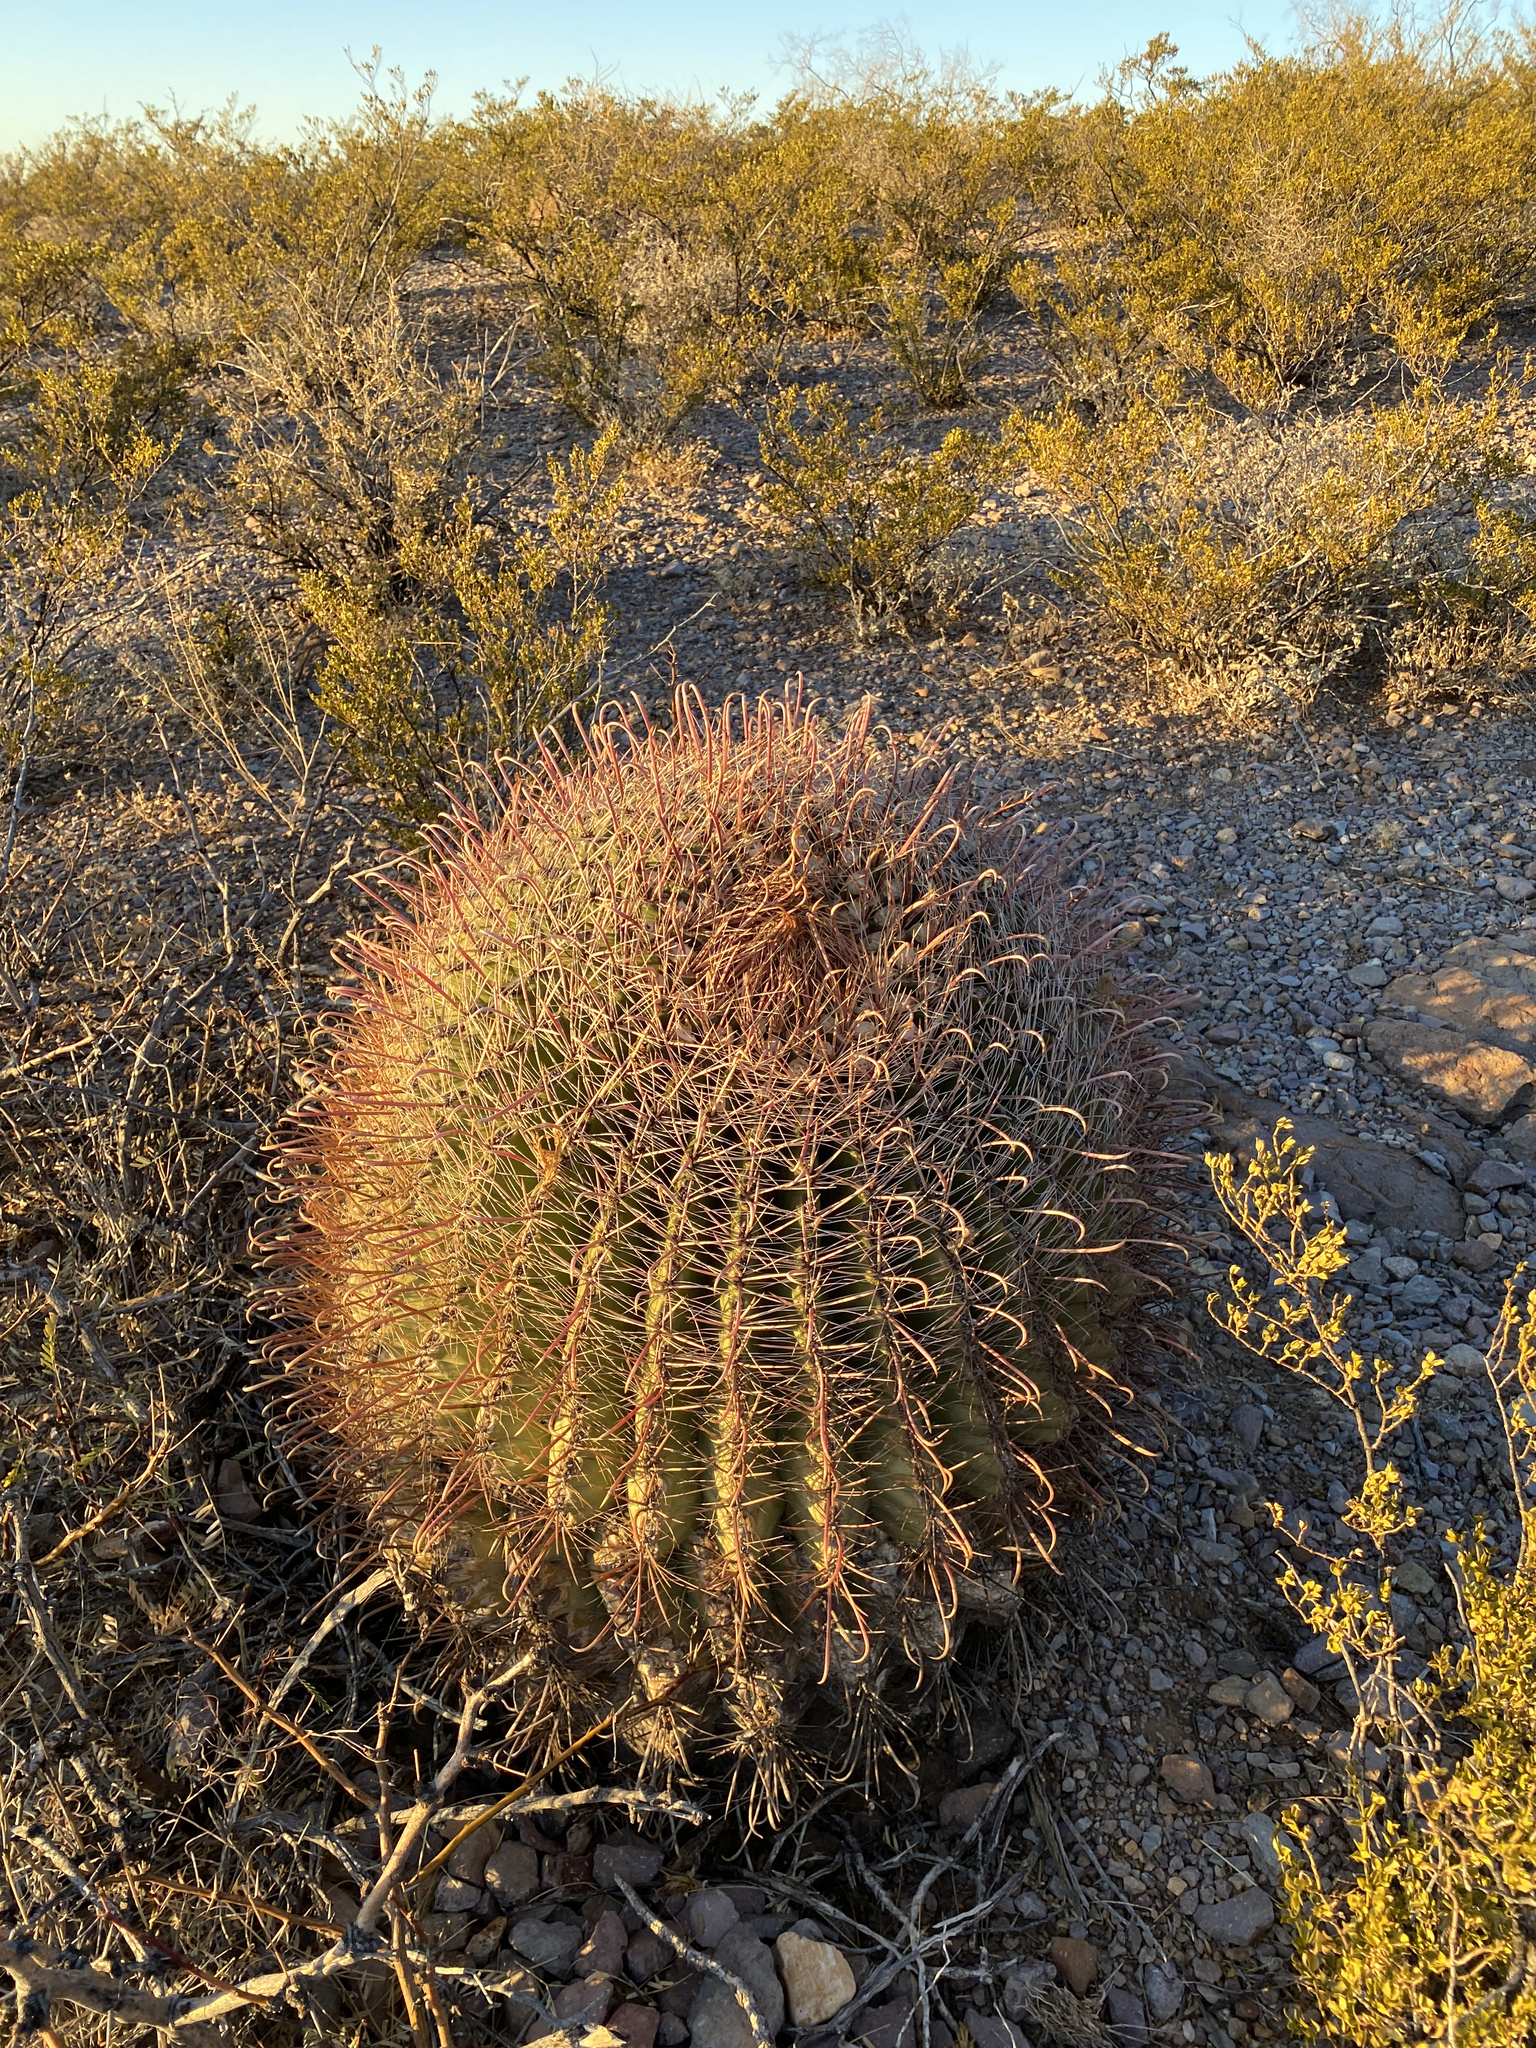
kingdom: Plantae
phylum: Tracheophyta
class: Magnoliopsida
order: Caryophyllales
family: Cactaceae
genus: Ferocactus
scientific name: Ferocactus wislizeni
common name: Candy barrel cactus
